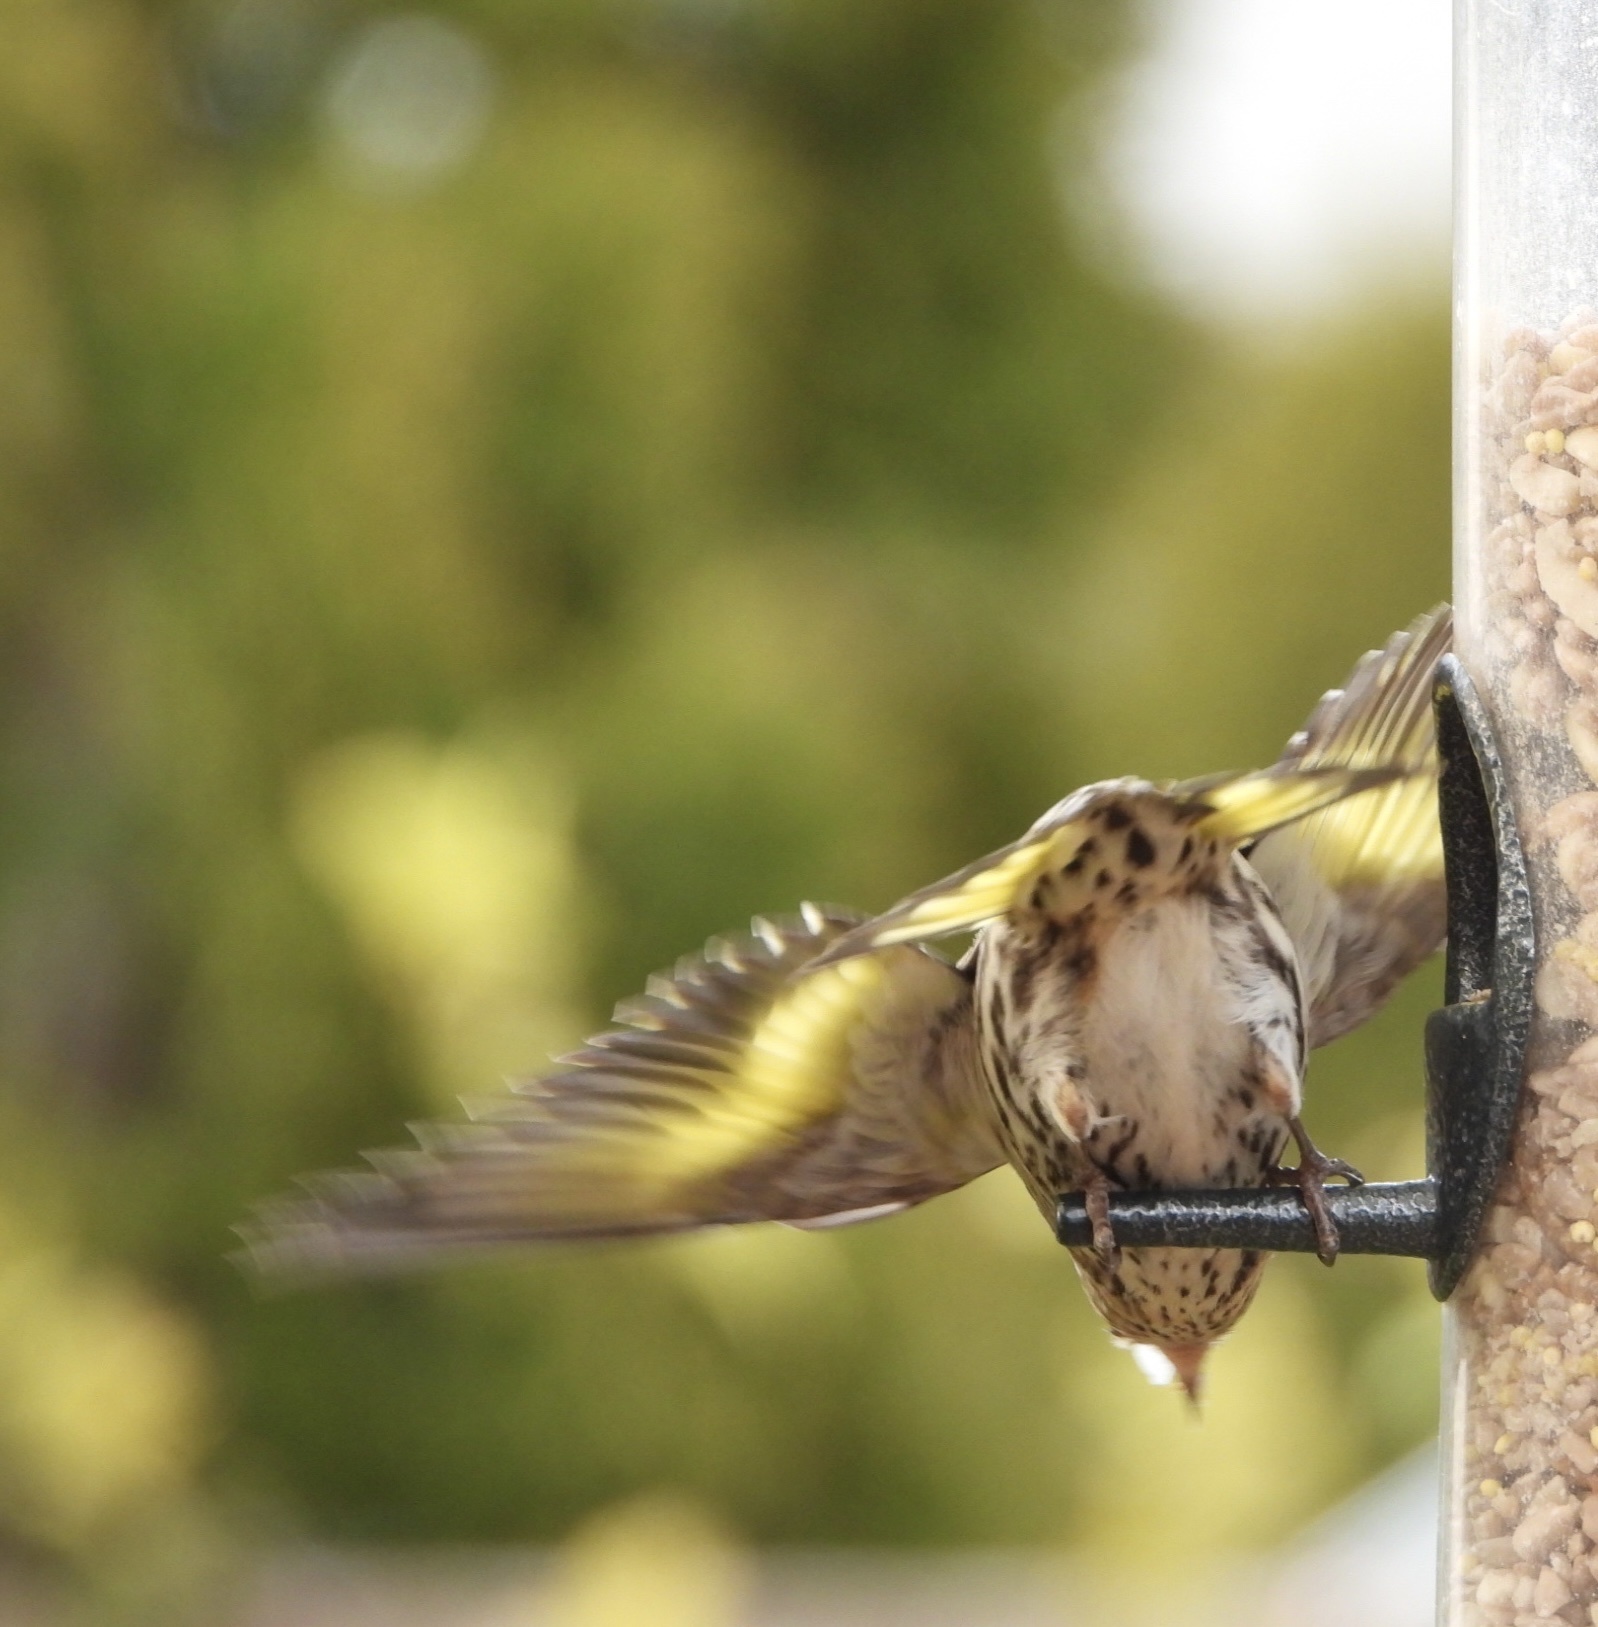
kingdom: Animalia
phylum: Chordata
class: Aves
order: Passeriformes
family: Fringillidae
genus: Spinus
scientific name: Spinus pinus
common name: Pine siskin
